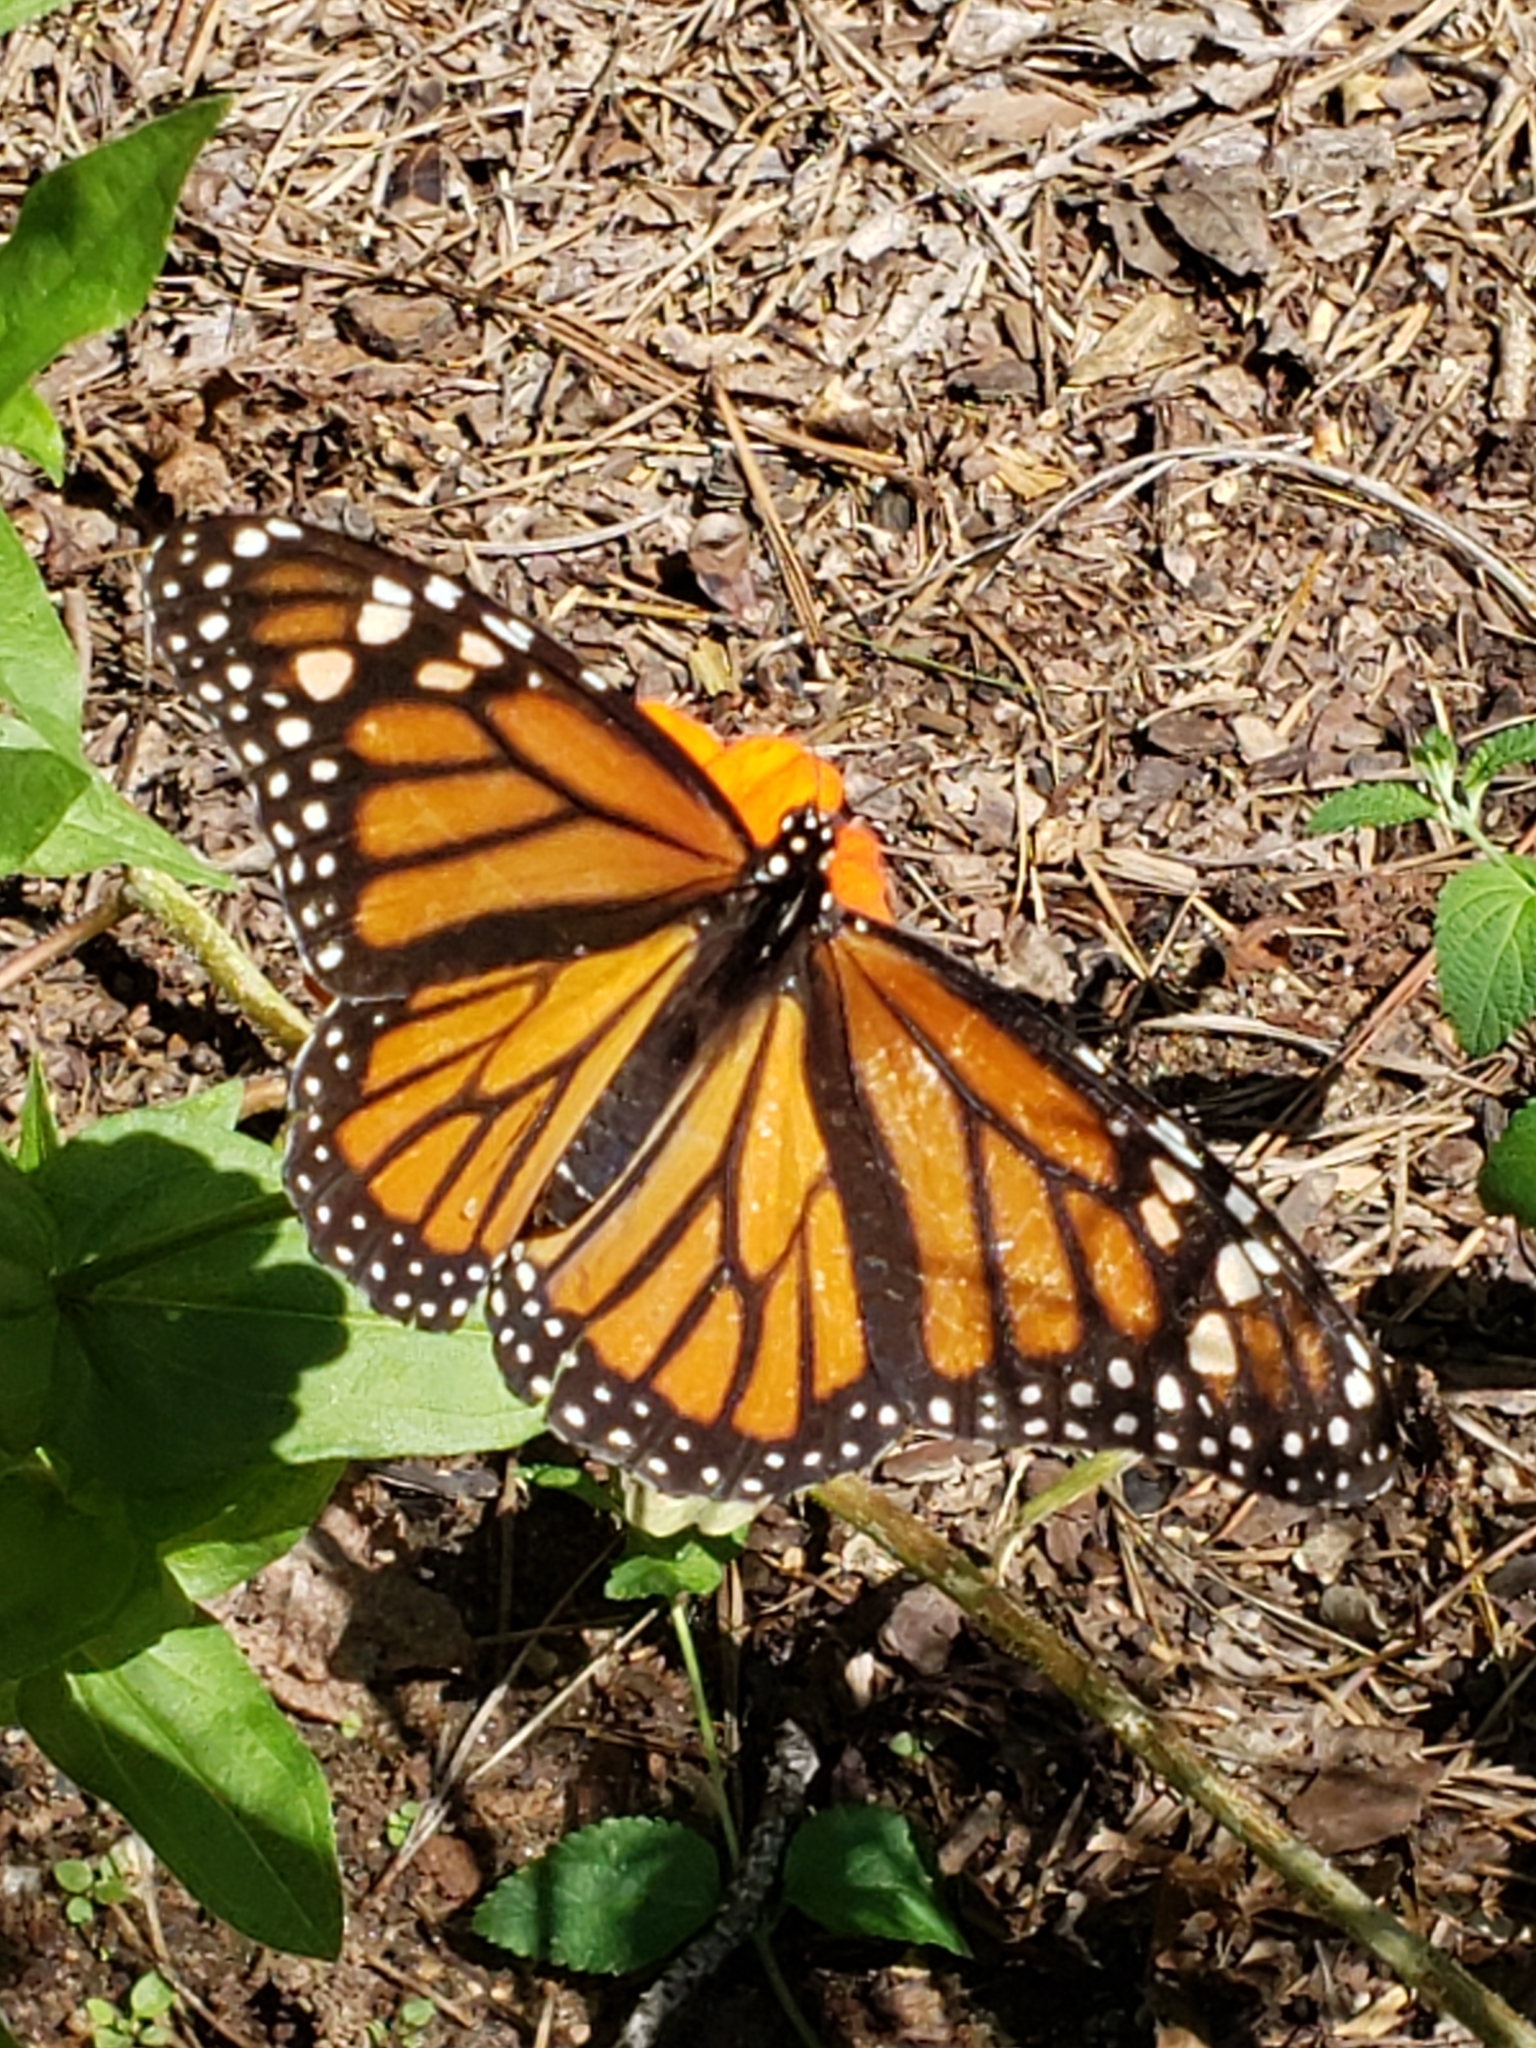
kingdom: Animalia
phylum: Arthropoda
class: Insecta
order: Lepidoptera
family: Nymphalidae
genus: Danaus
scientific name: Danaus plexippus
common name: Monarch
